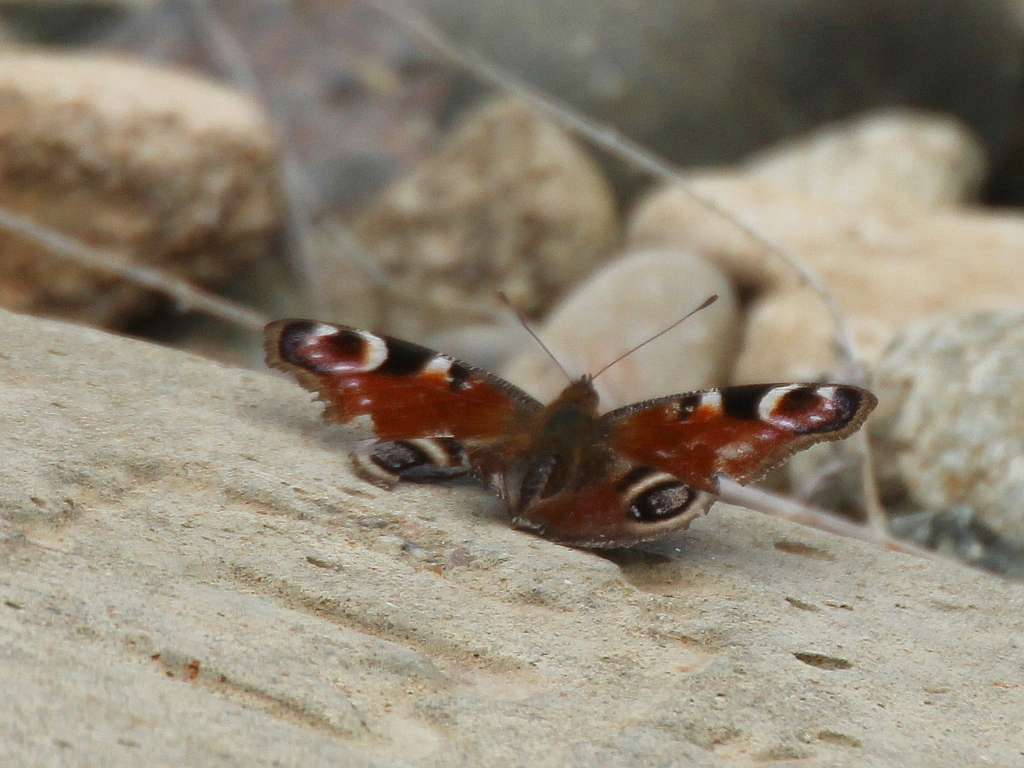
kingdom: Animalia
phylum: Arthropoda
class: Insecta
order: Lepidoptera
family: Nymphalidae
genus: Aglais
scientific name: Aglais io
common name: Peacock
